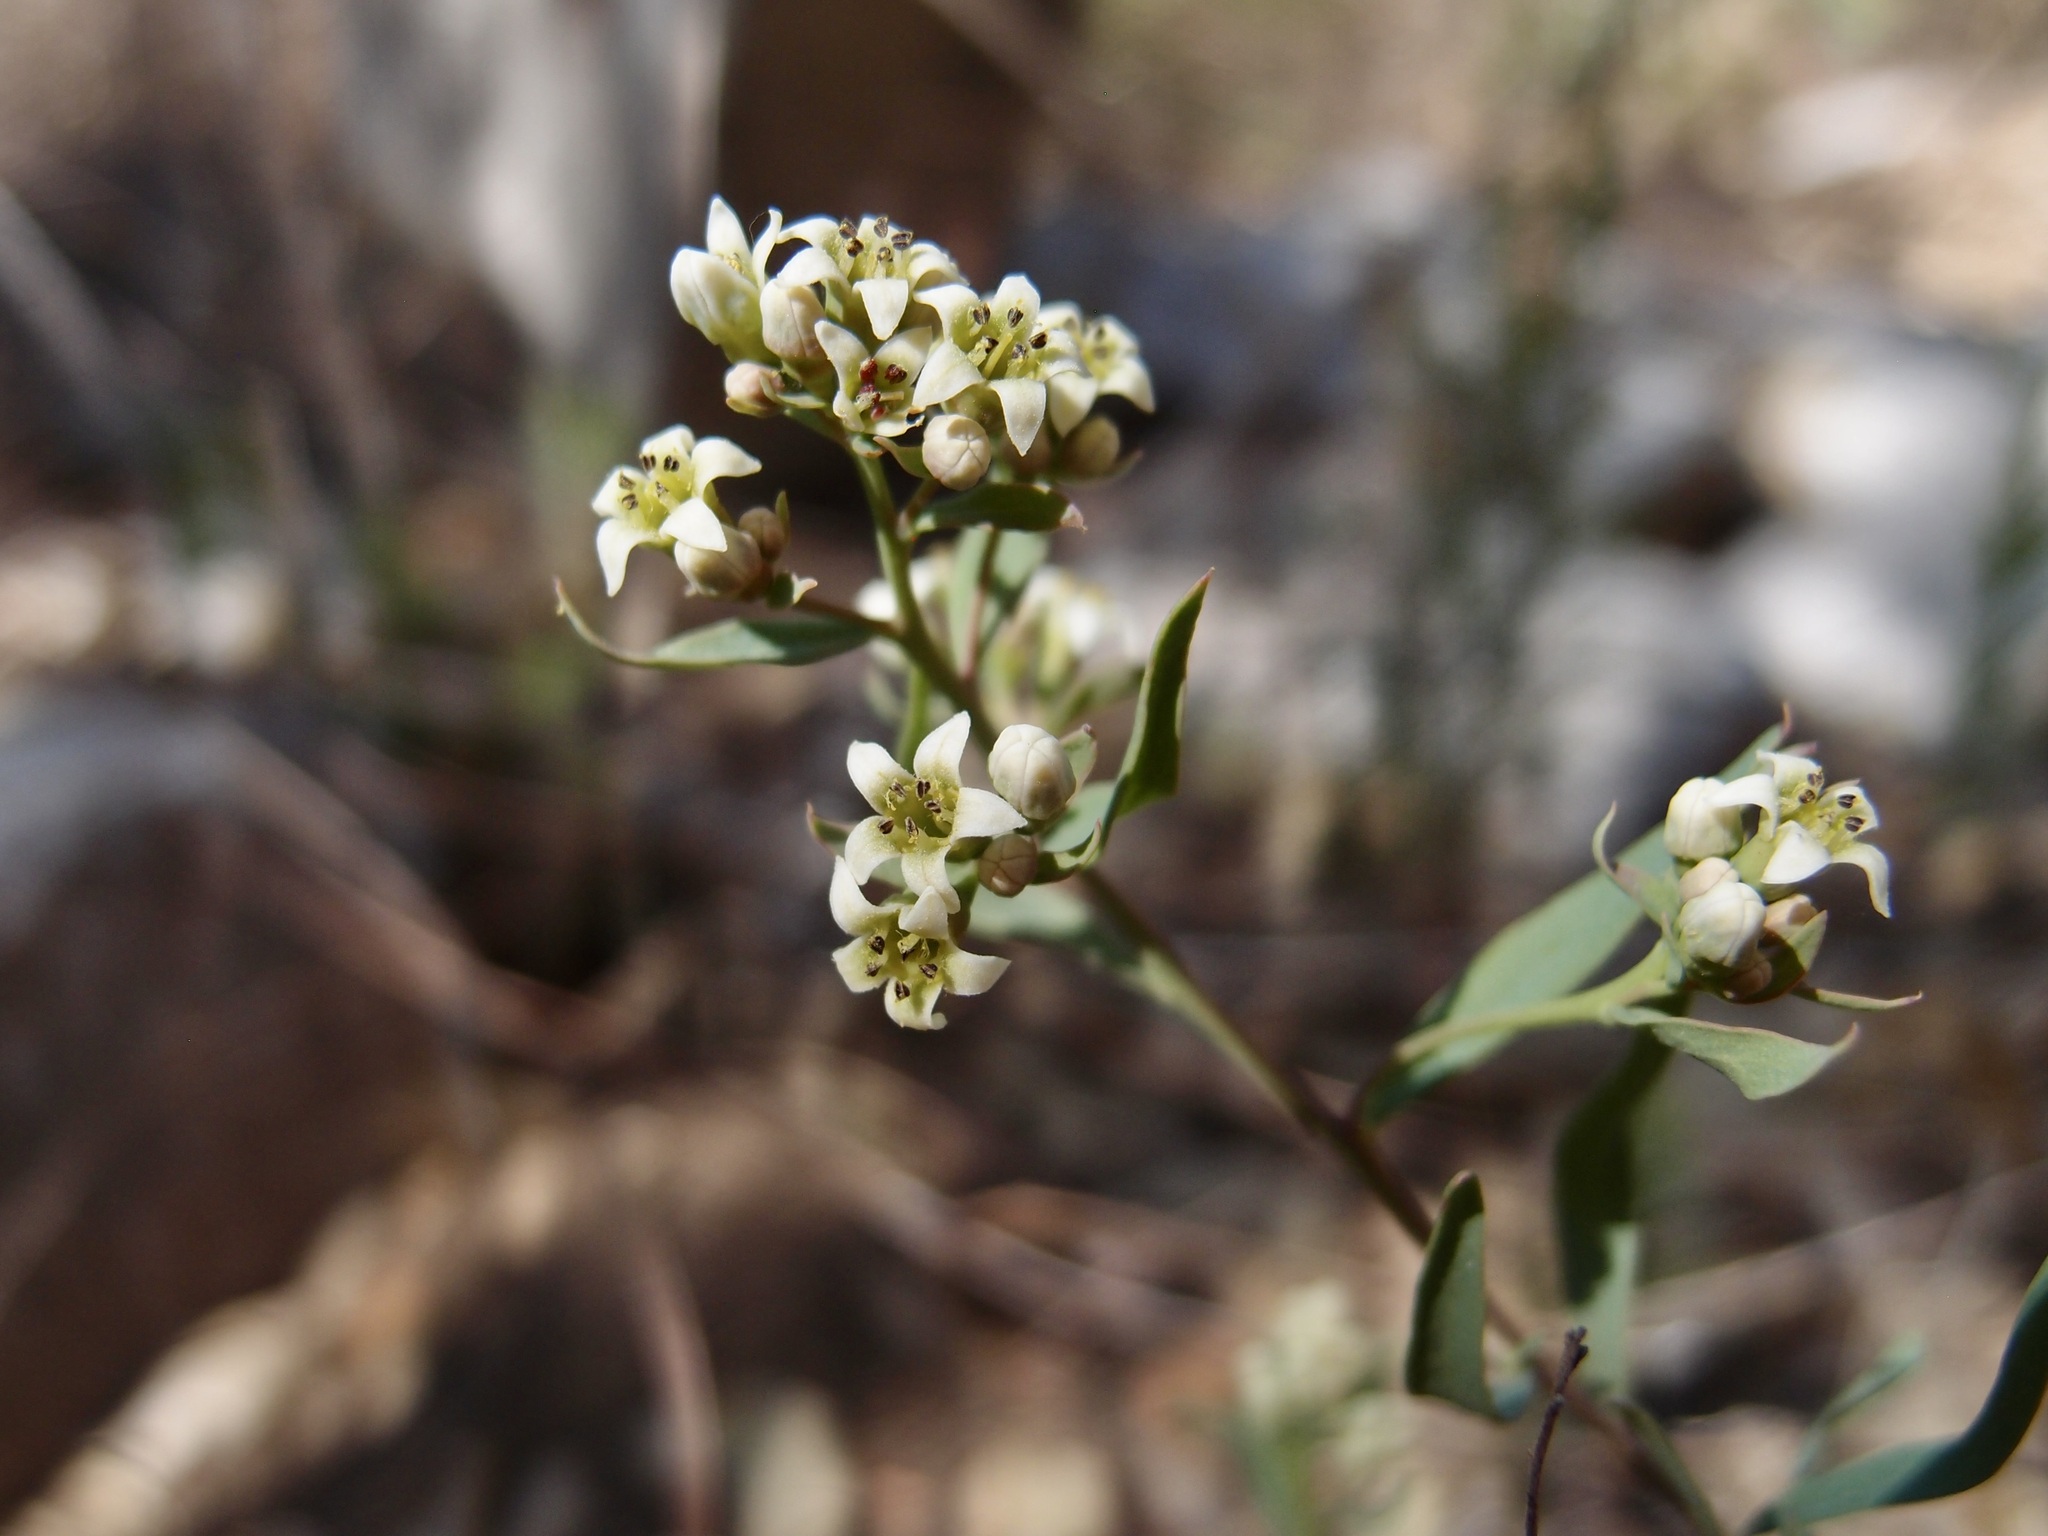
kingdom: Plantae
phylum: Tracheophyta
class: Magnoliopsida
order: Santalales
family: Comandraceae
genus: Comandra
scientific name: Comandra umbellata
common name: Bastard toadflax
